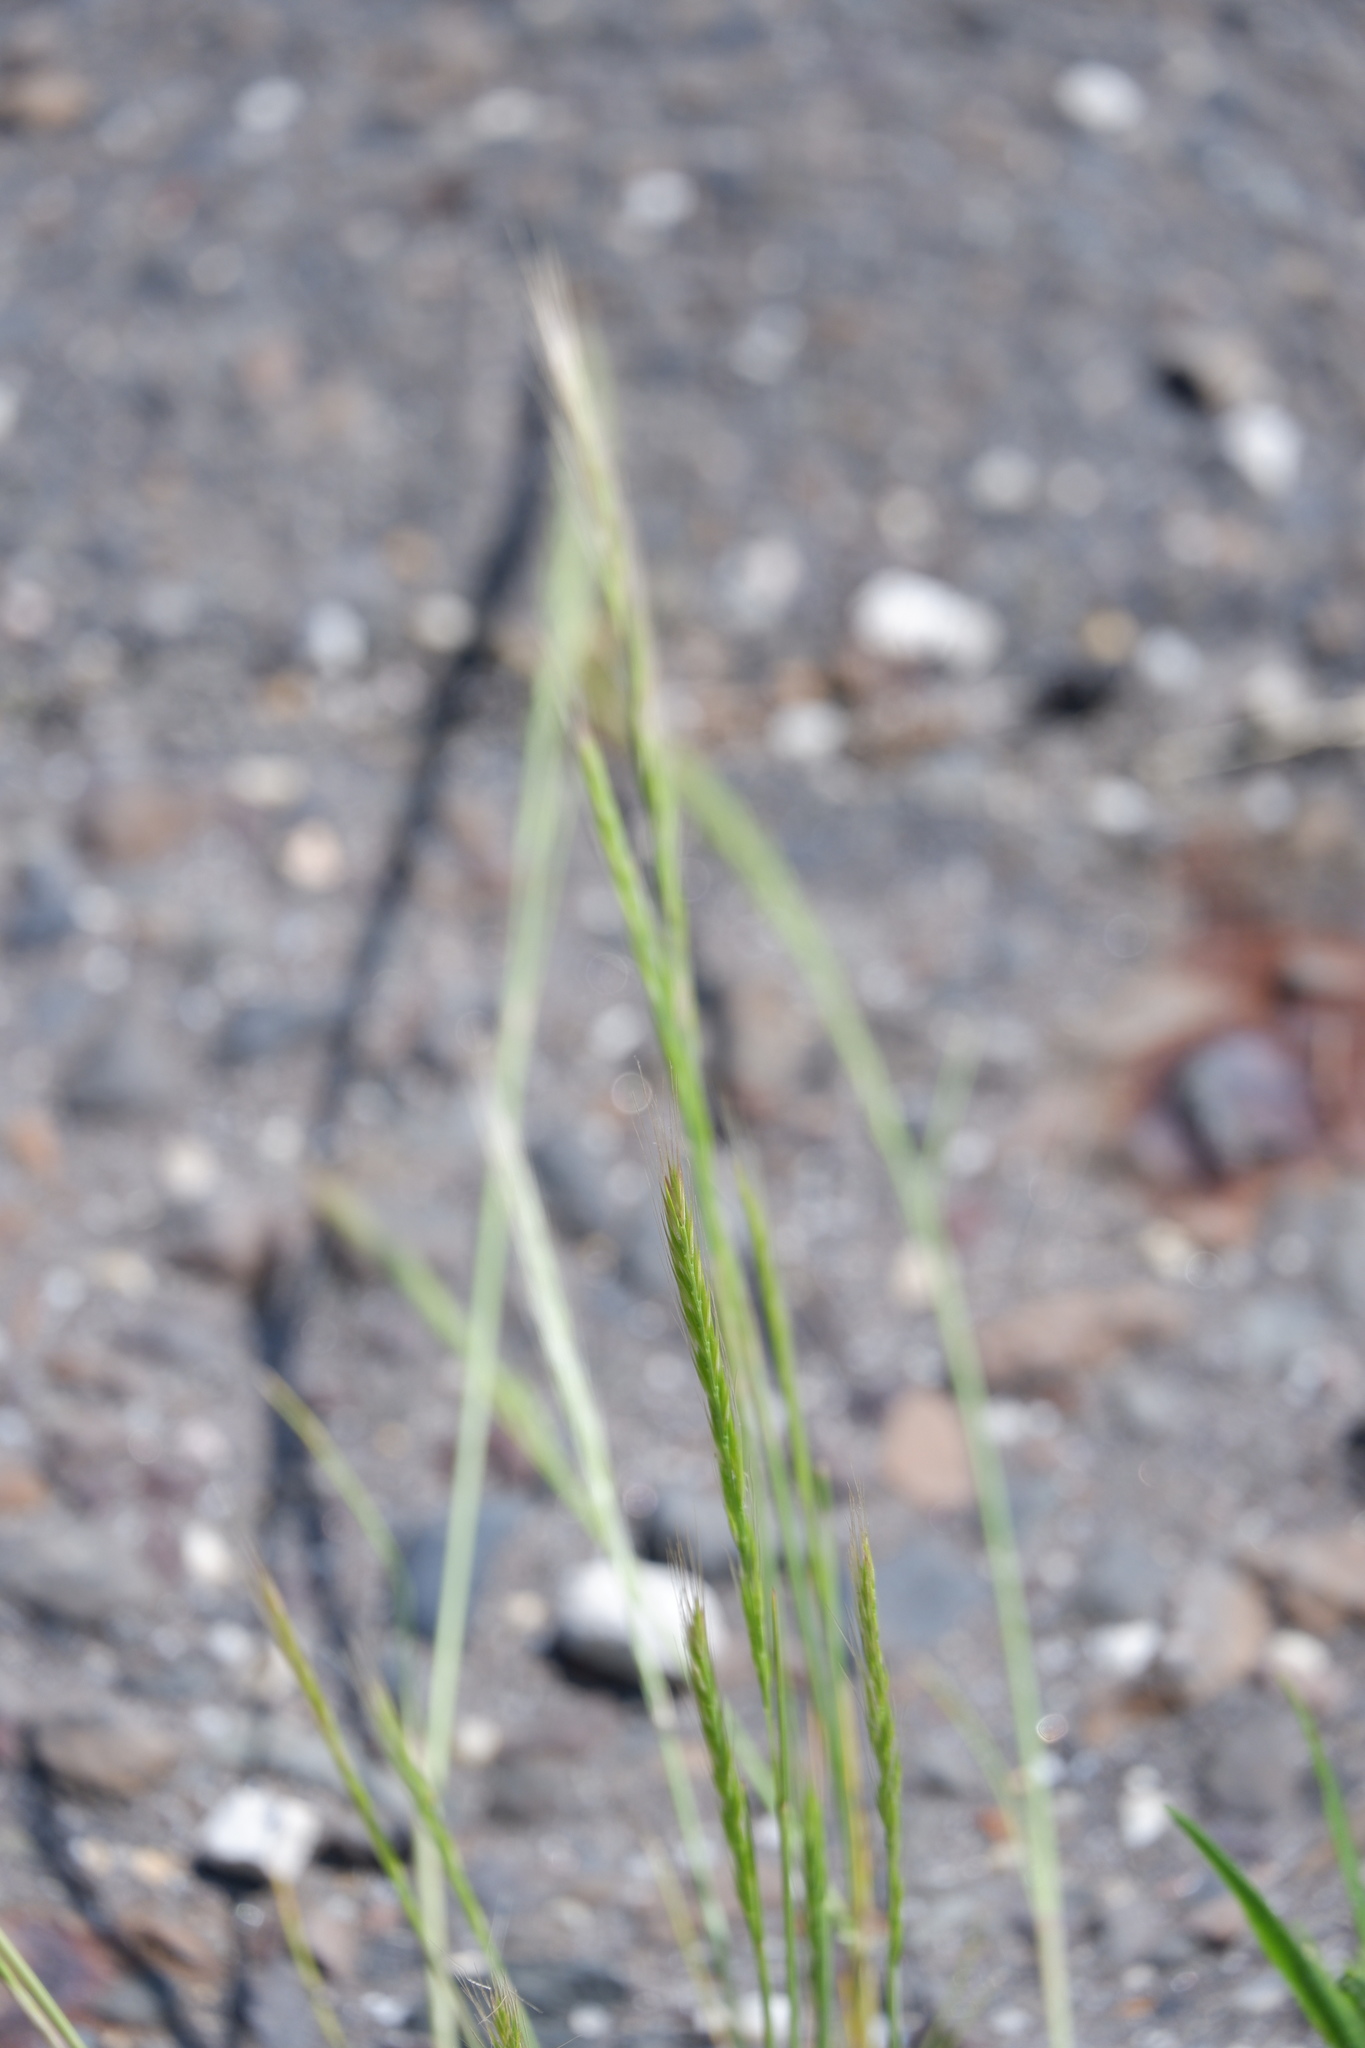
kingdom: Plantae
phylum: Tracheophyta
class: Liliopsida
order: Poales
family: Poaceae
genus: Festuca
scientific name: Festuca myuros
